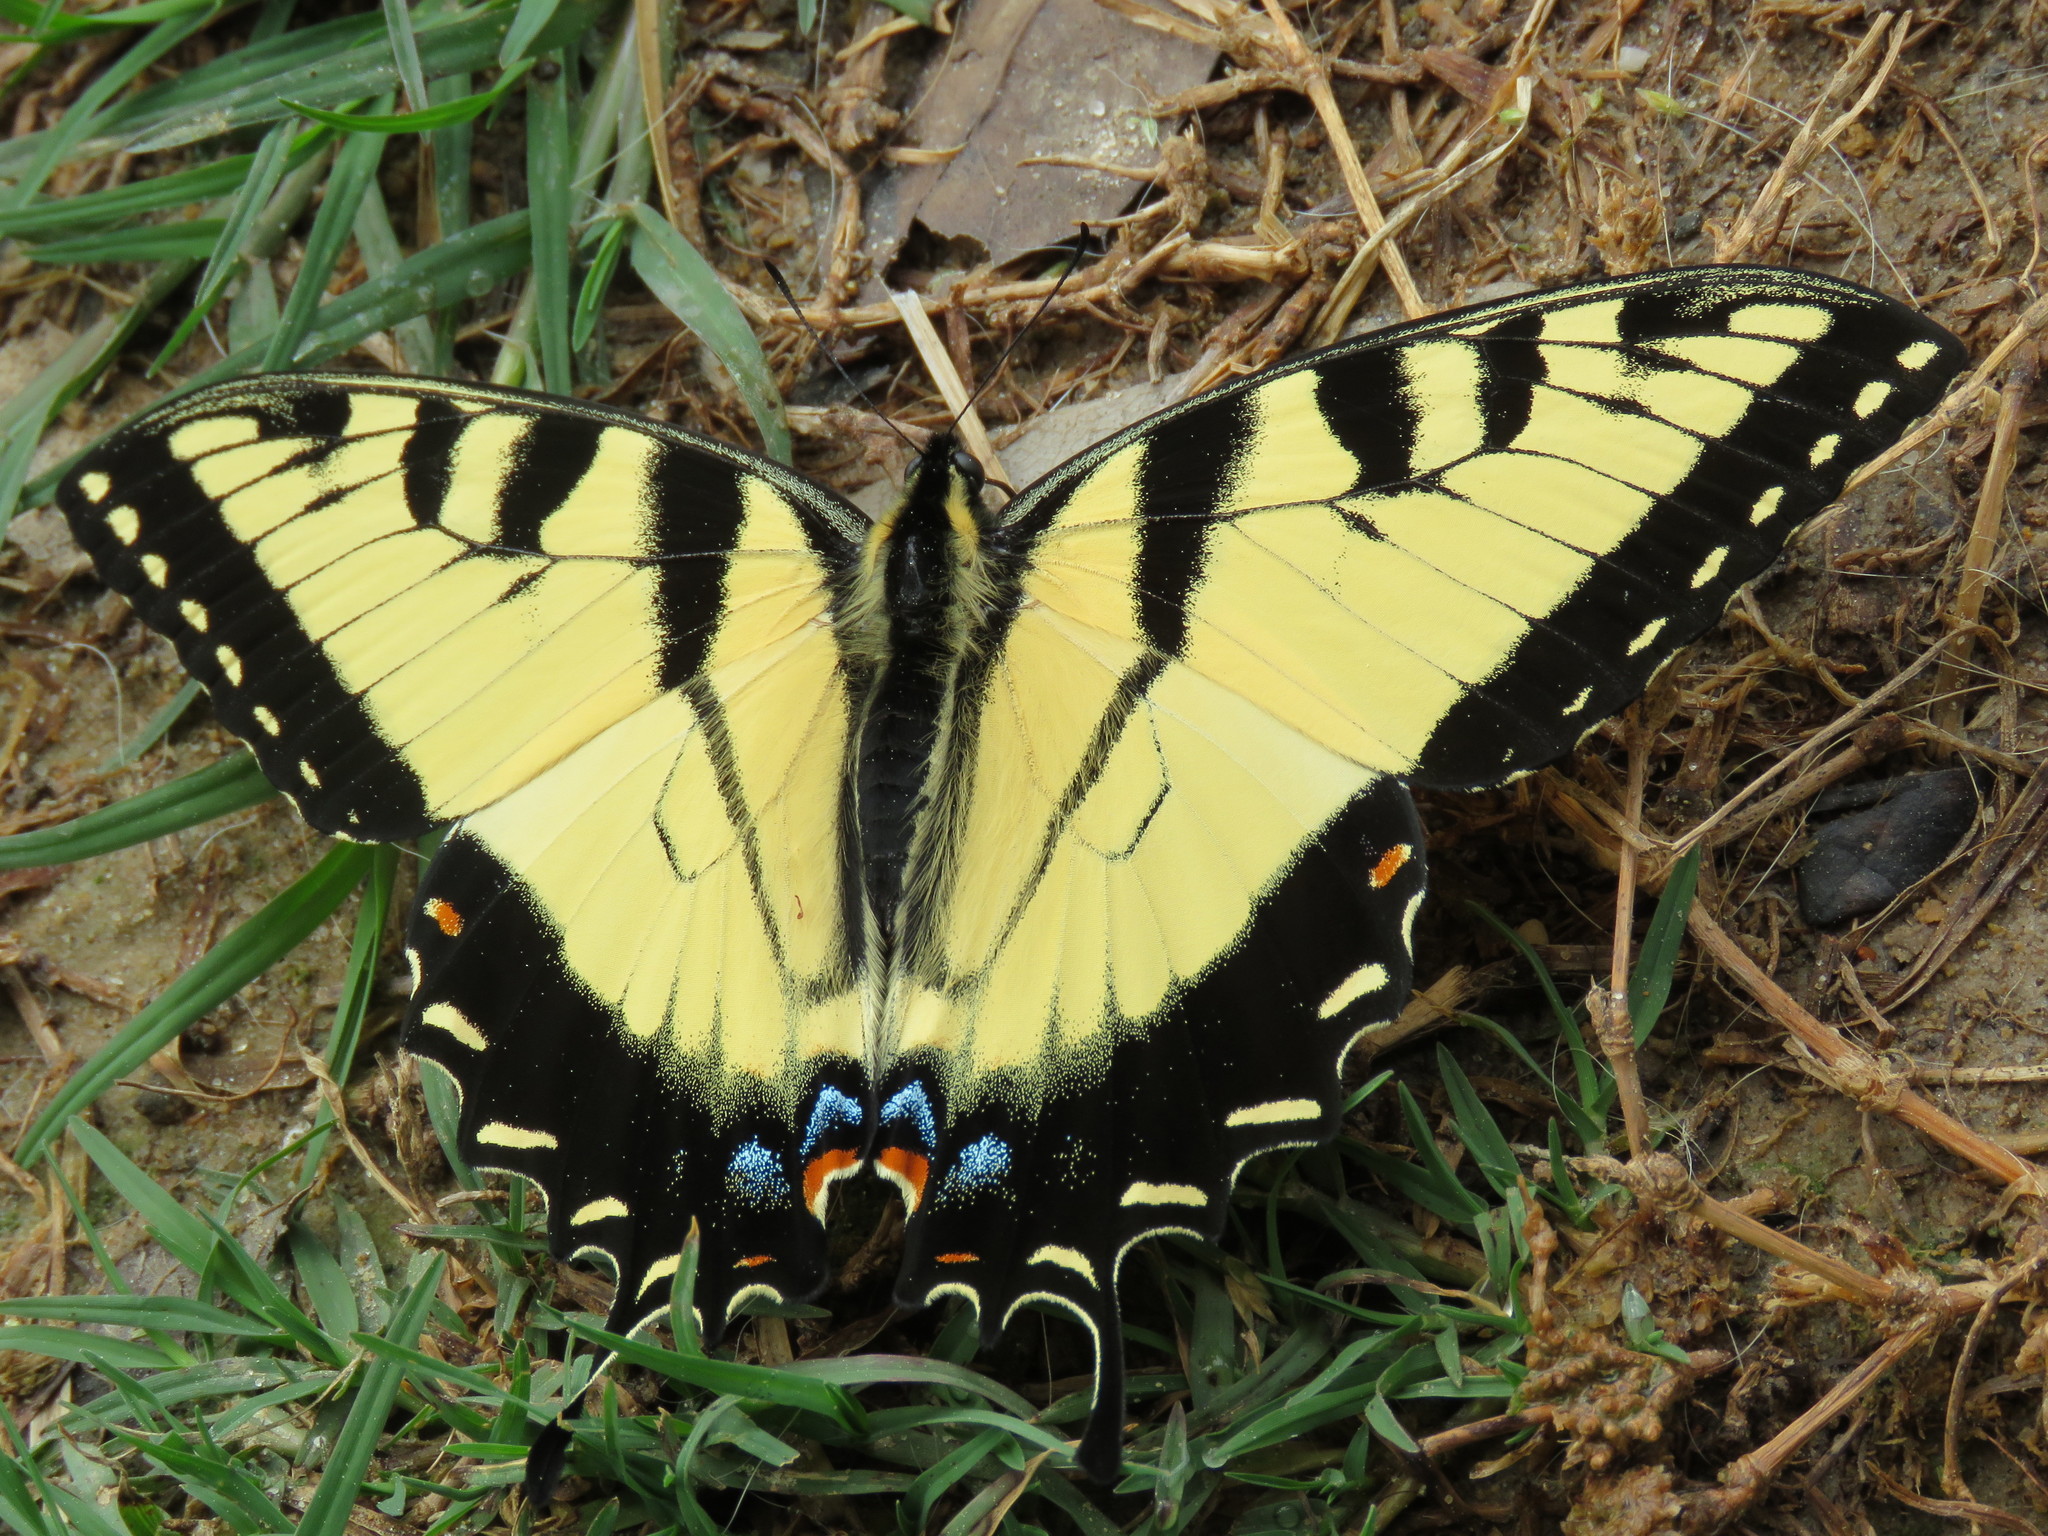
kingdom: Animalia
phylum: Arthropoda
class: Insecta
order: Lepidoptera
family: Papilionidae
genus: Papilio
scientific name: Papilio glaucus
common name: Tiger swallowtail
